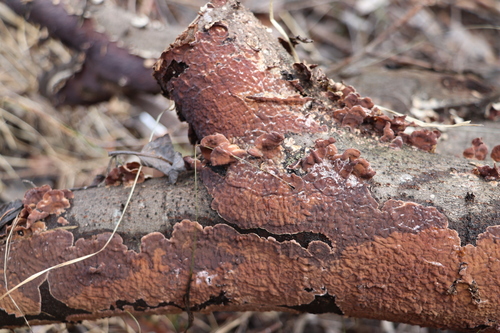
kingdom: Fungi
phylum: Basidiomycota
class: Agaricomycetes
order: Russulales
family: Stereaceae
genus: Stereum
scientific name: Stereum
